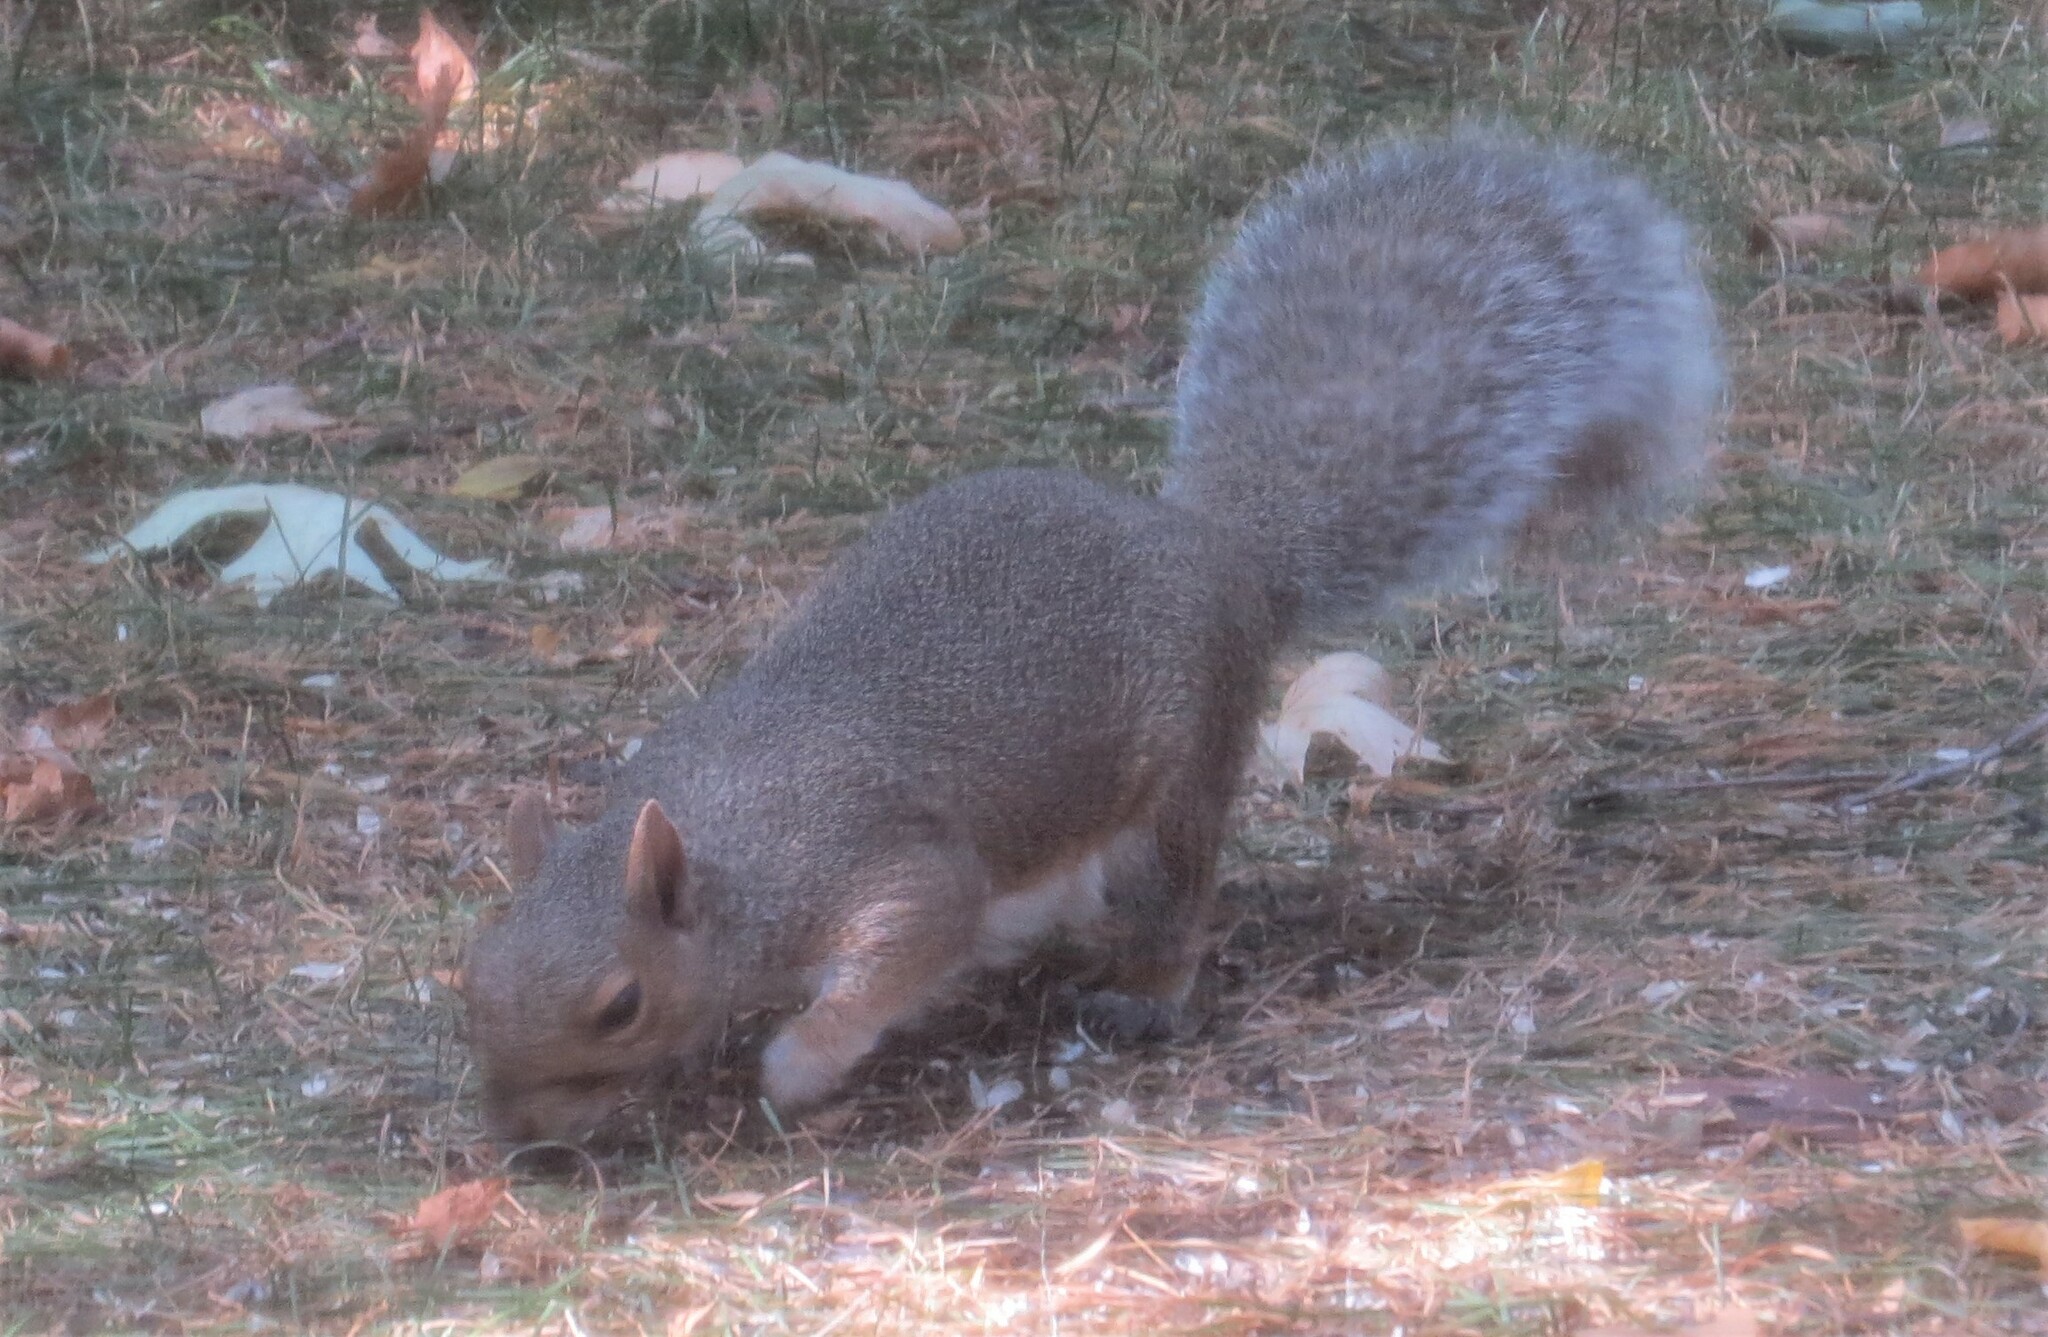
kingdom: Animalia
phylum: Chordata
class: Mammalia
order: Rodentia
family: Sciuridae
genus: Sciurus
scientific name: Sciurus carolinensis
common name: Eastern gray squirrel
